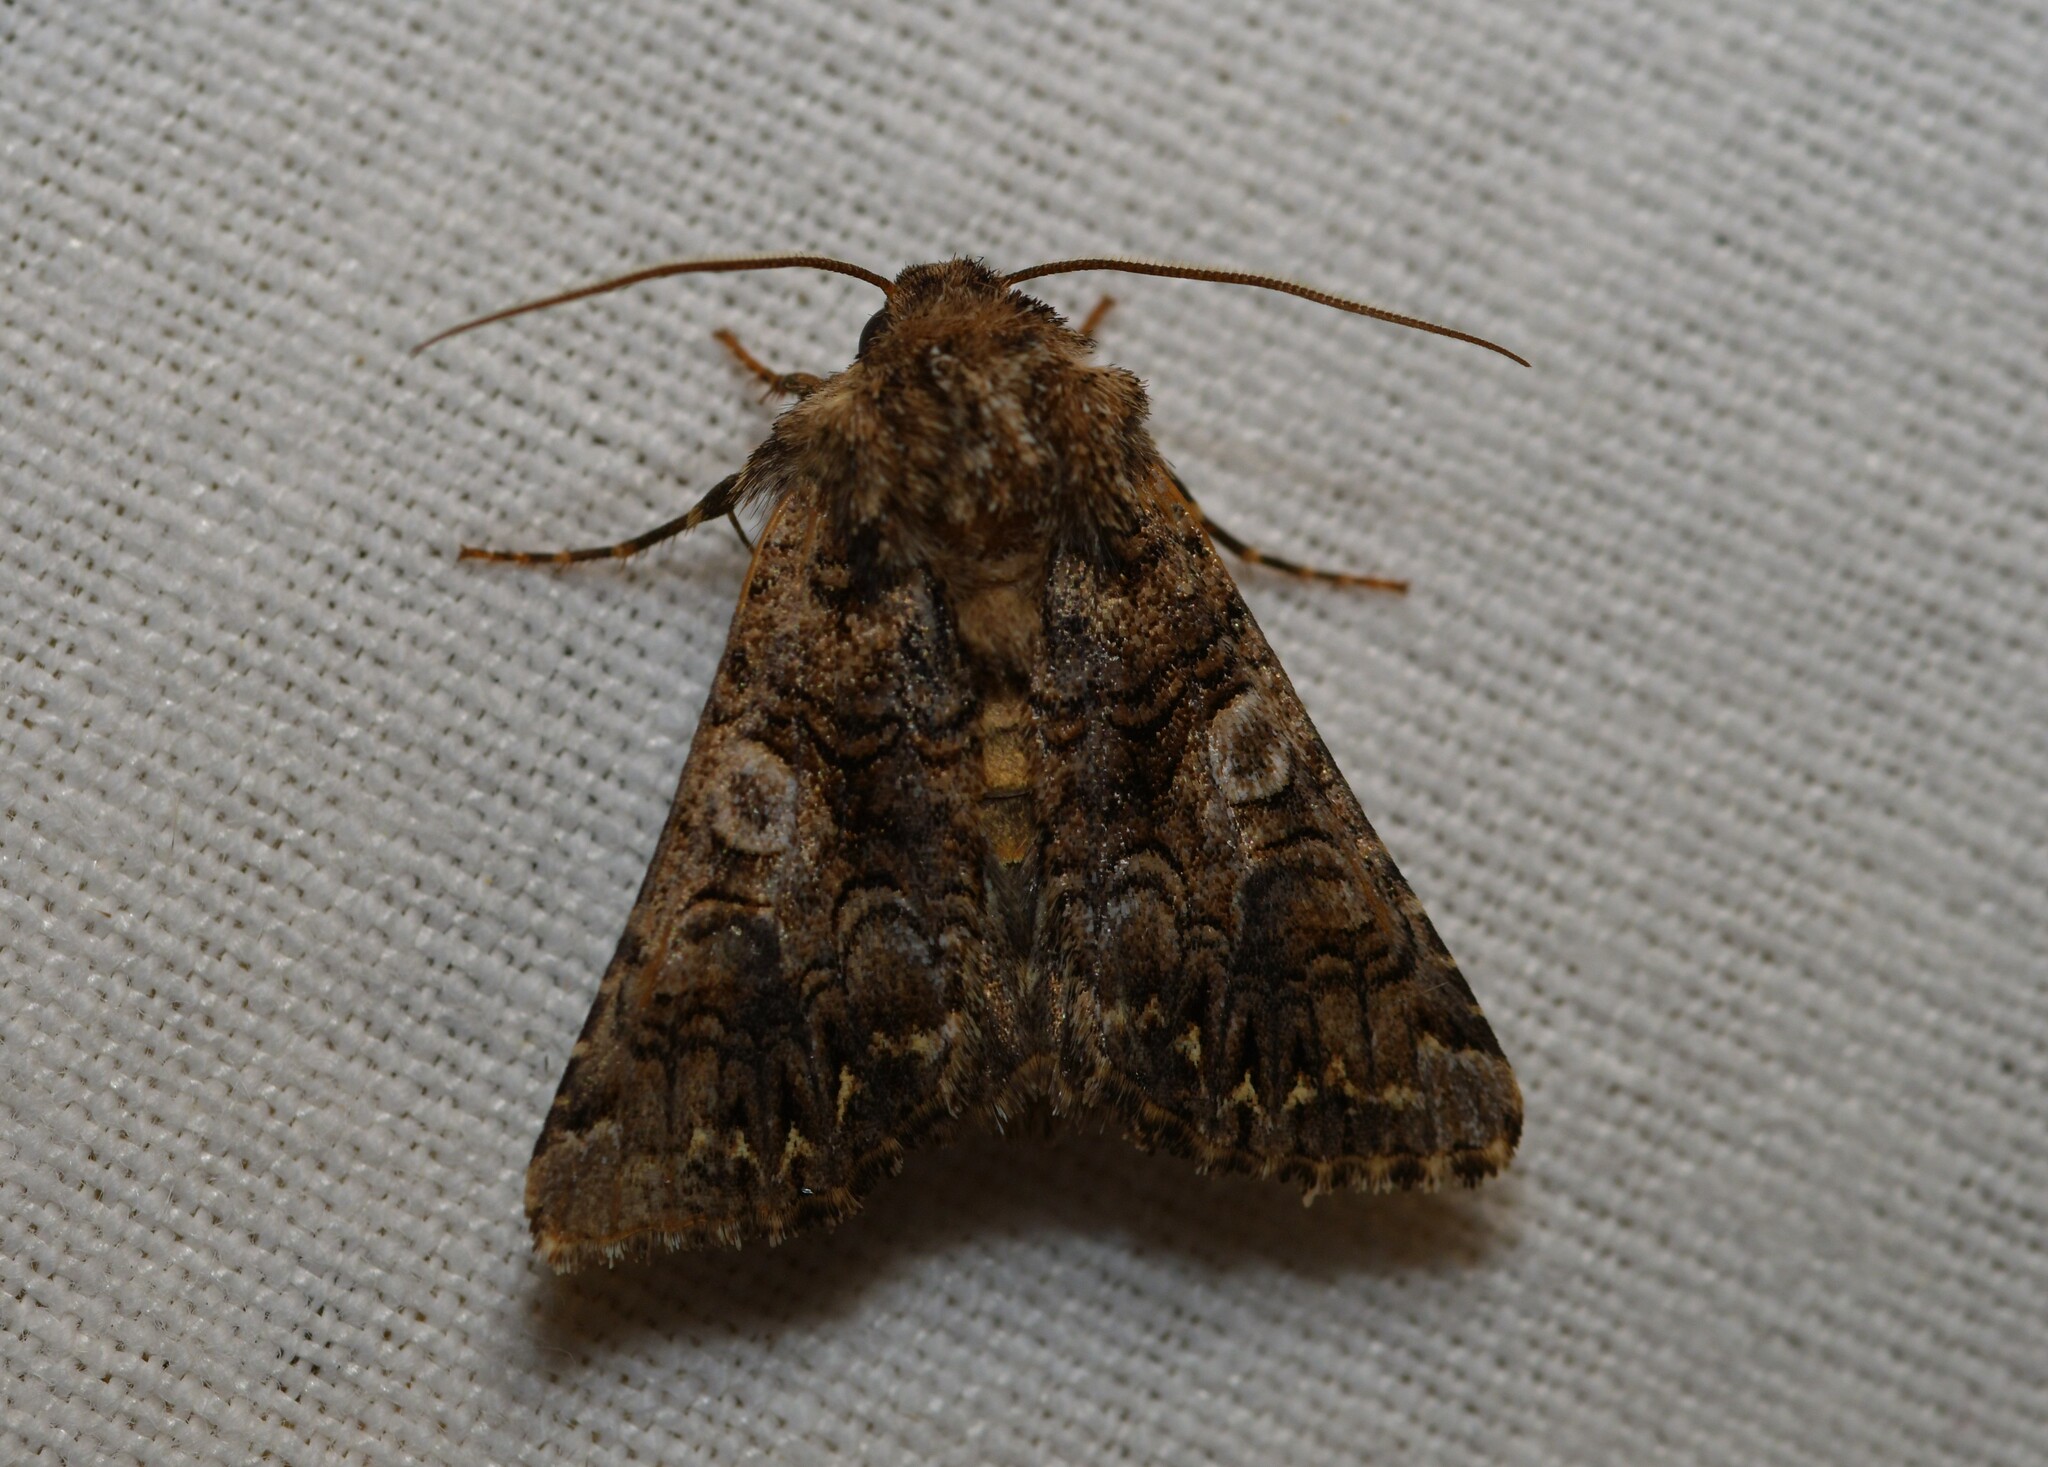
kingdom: Animalia
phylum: Arthropoda
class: Insecta
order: Lepidoptera
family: Noctuidae
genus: Hadena
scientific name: Hadena sancta
